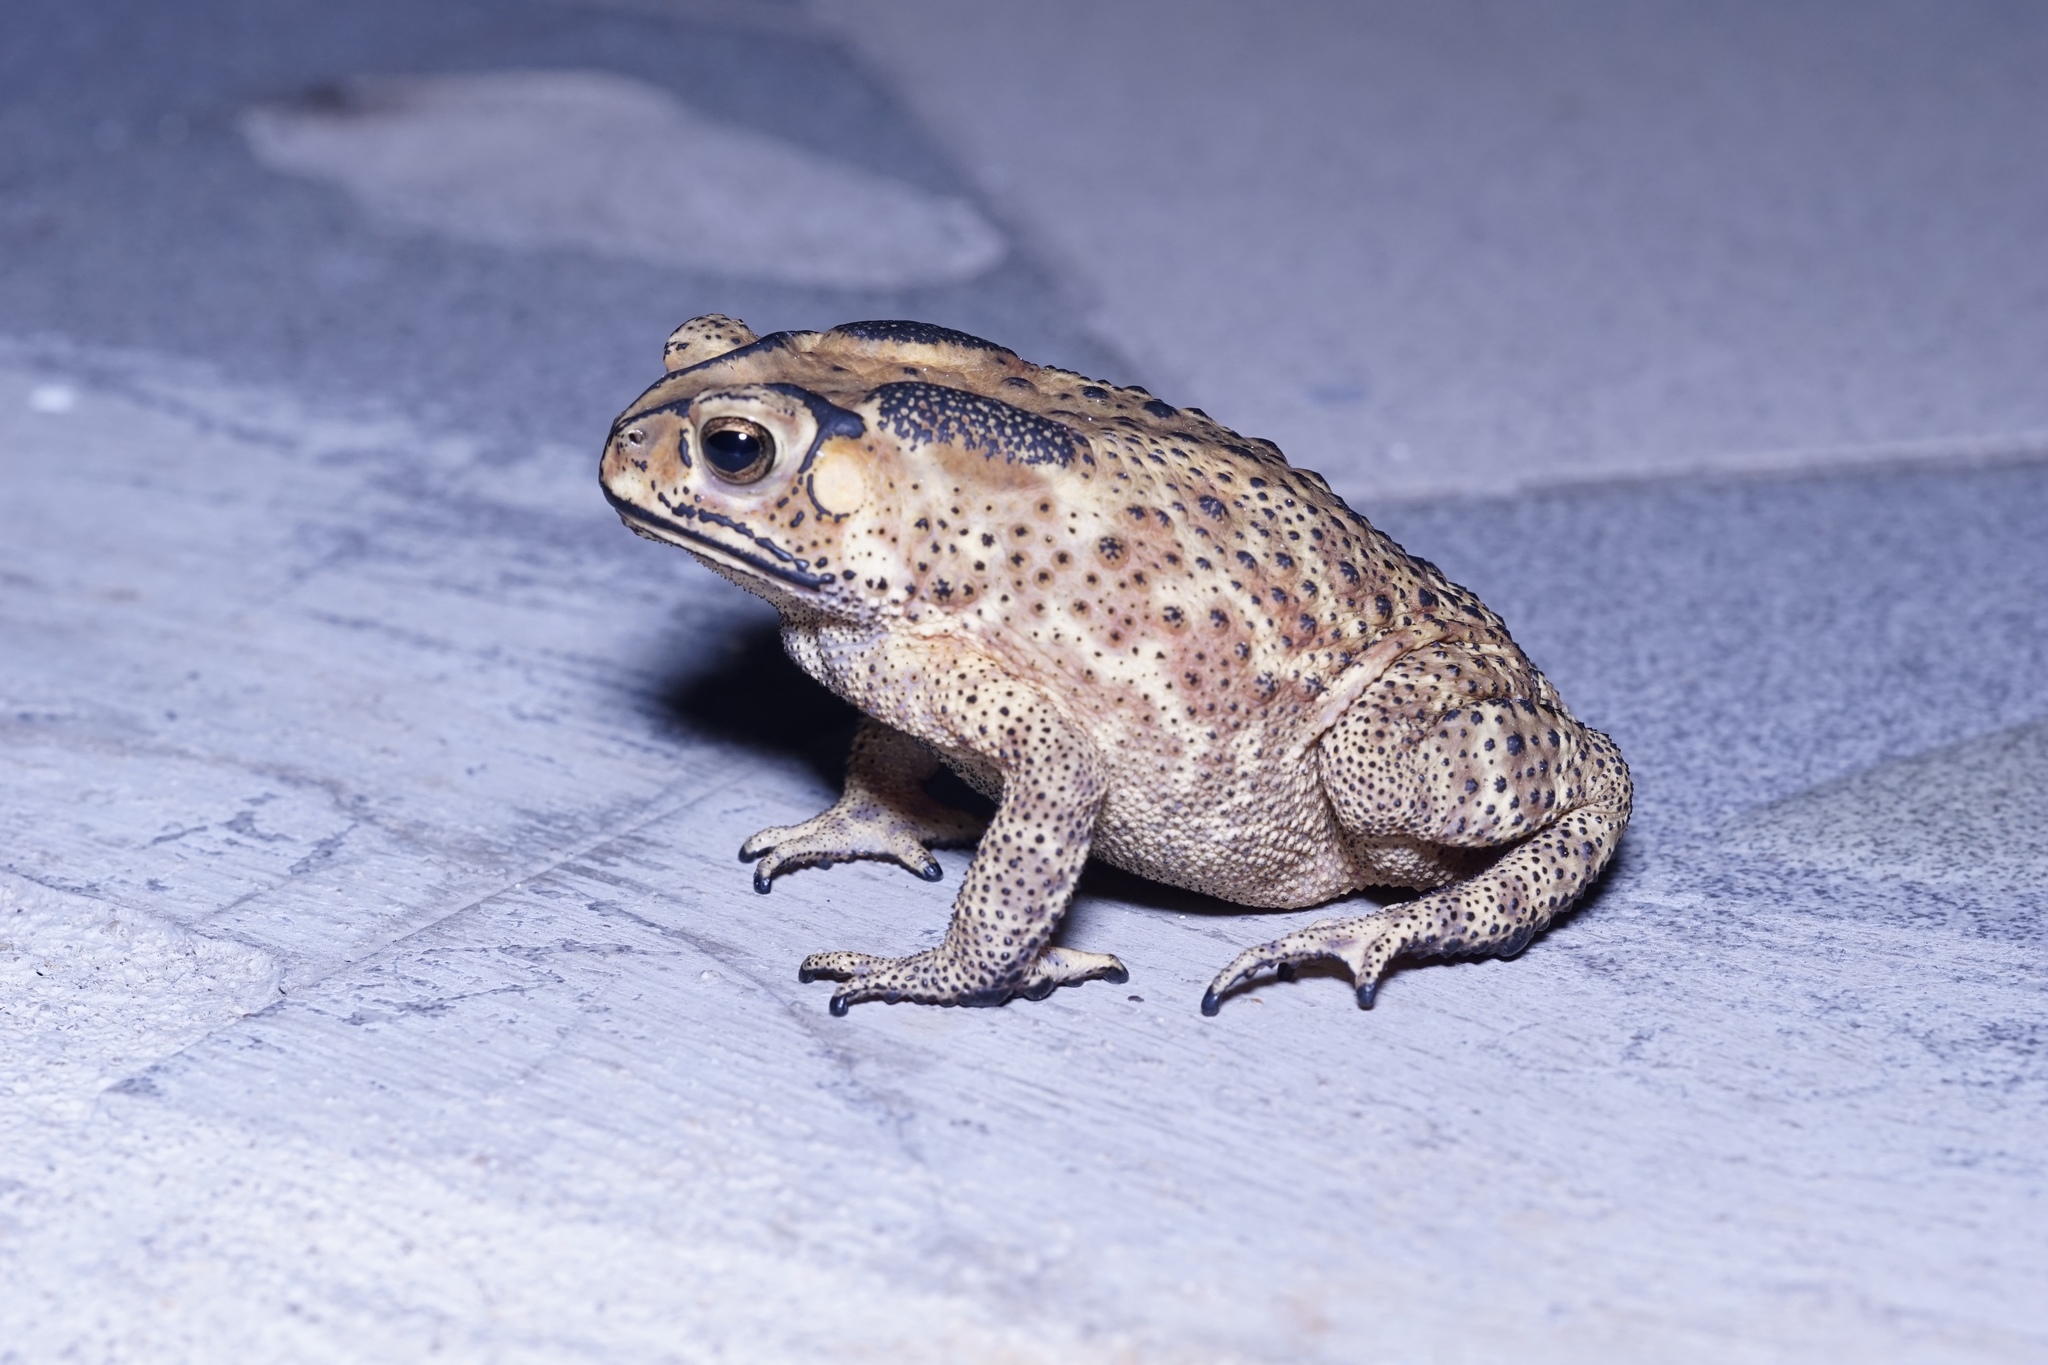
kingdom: Animalia
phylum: Chordata
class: Amphibia
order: Anura
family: Bufonidae
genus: Duttaphrynus
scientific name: Duttaphrynus melanostictus
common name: Common sunda toad
